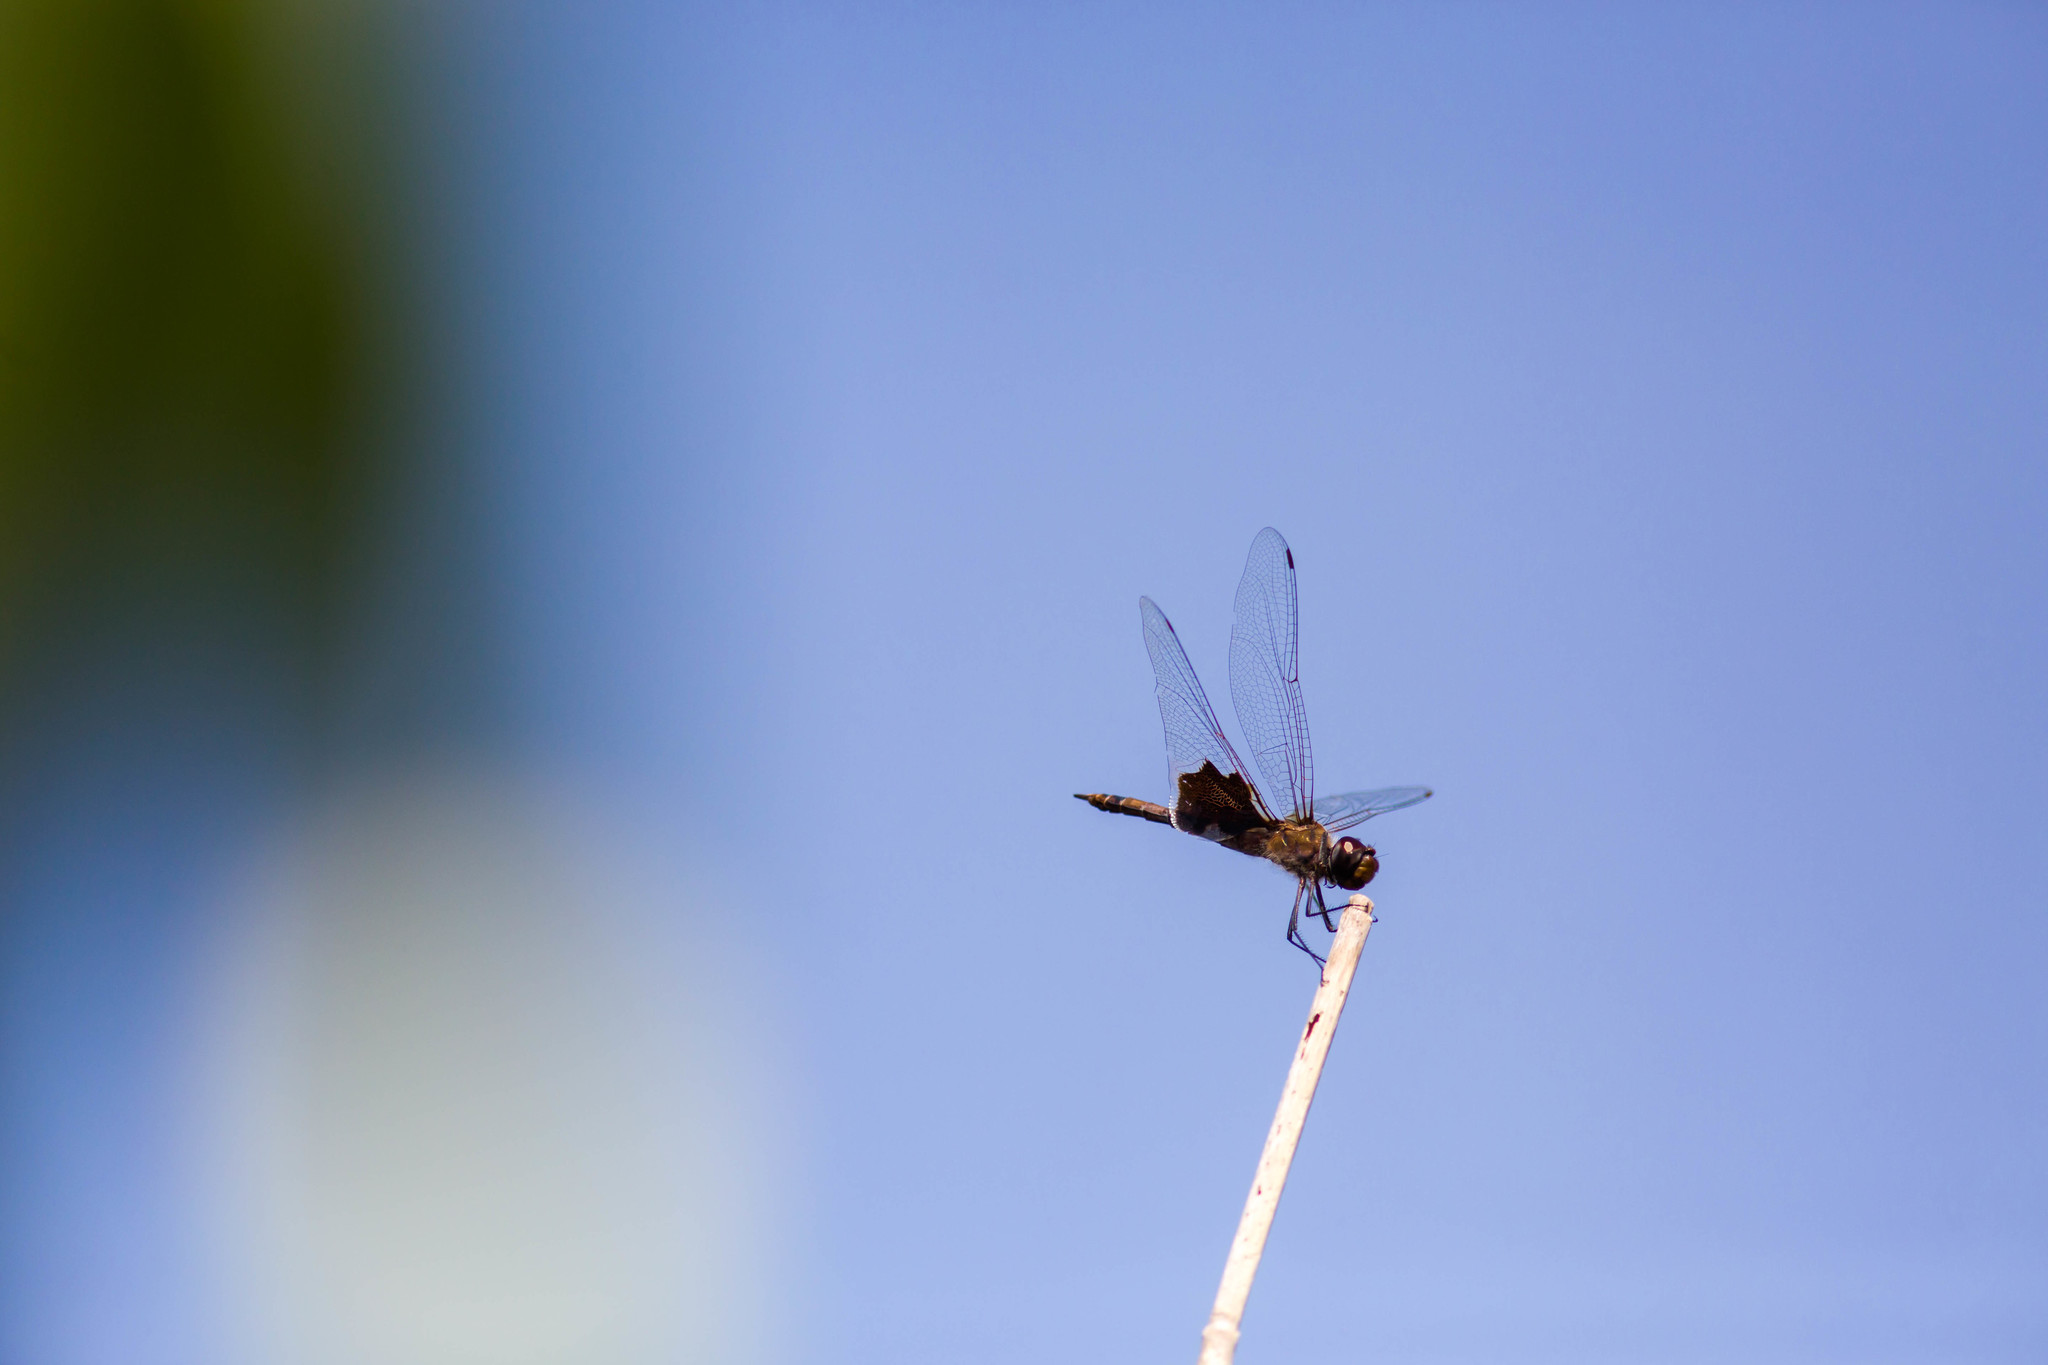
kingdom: Animalia
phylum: Arthropoda
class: Insecta
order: Odonata
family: Libellulidae
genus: Tramea
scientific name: Tramea onusta
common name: Red saddlebags
